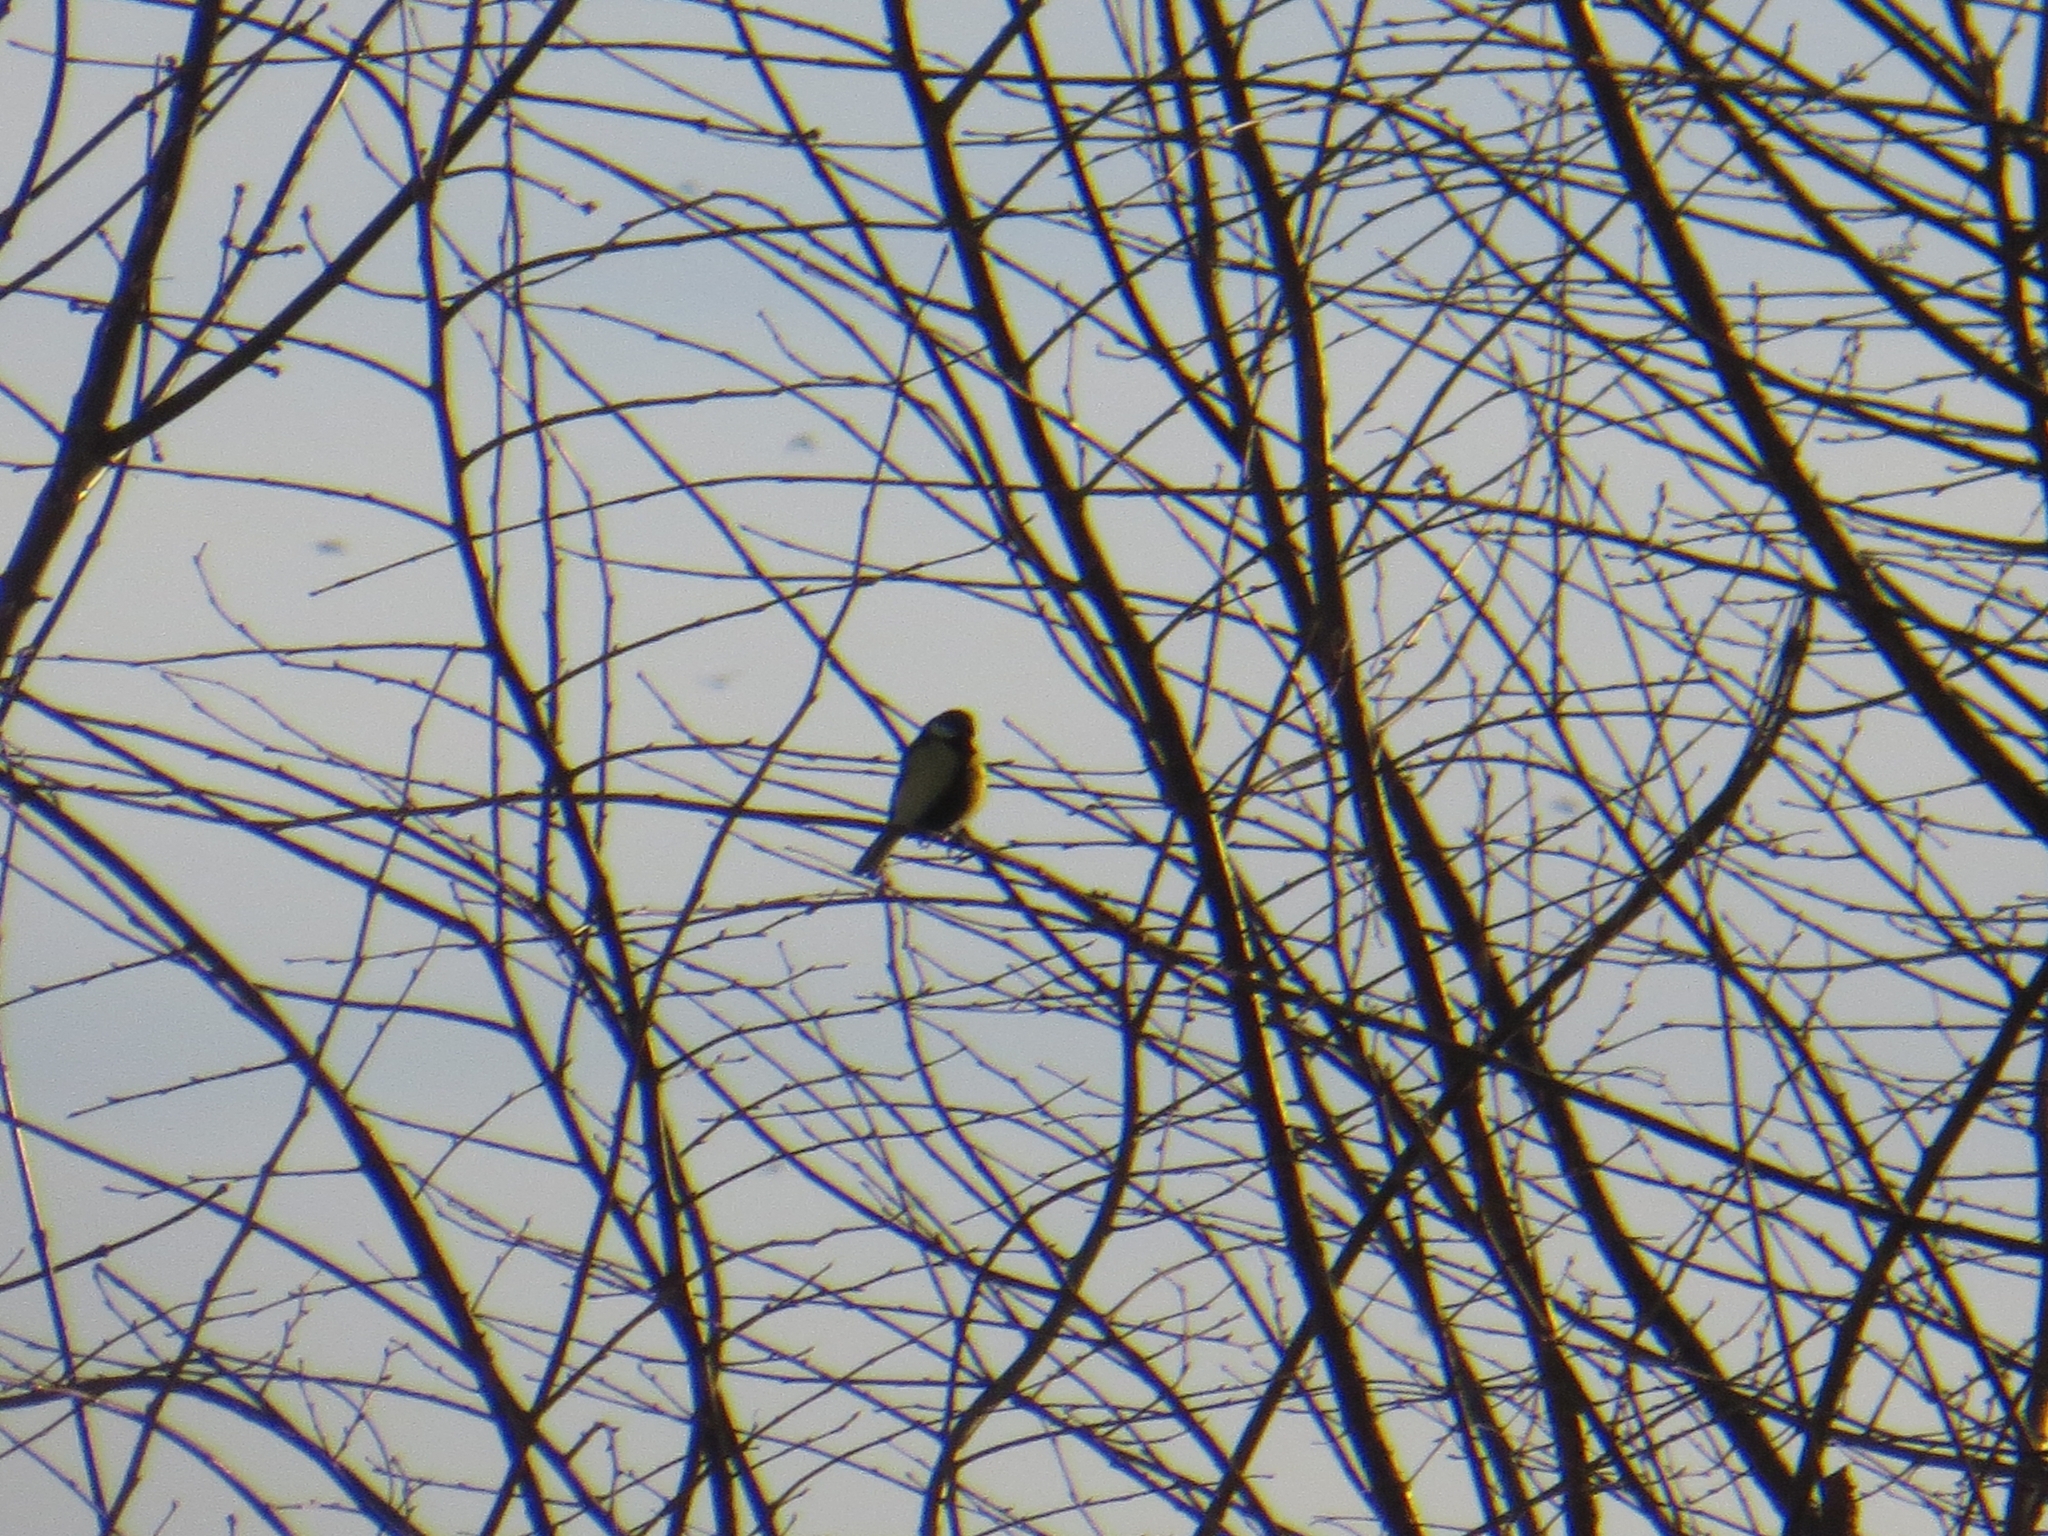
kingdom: Animalia
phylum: Chordata
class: Aves
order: Passeriformes
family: Paridae
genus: Parus
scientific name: Parus major
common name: Great tit
